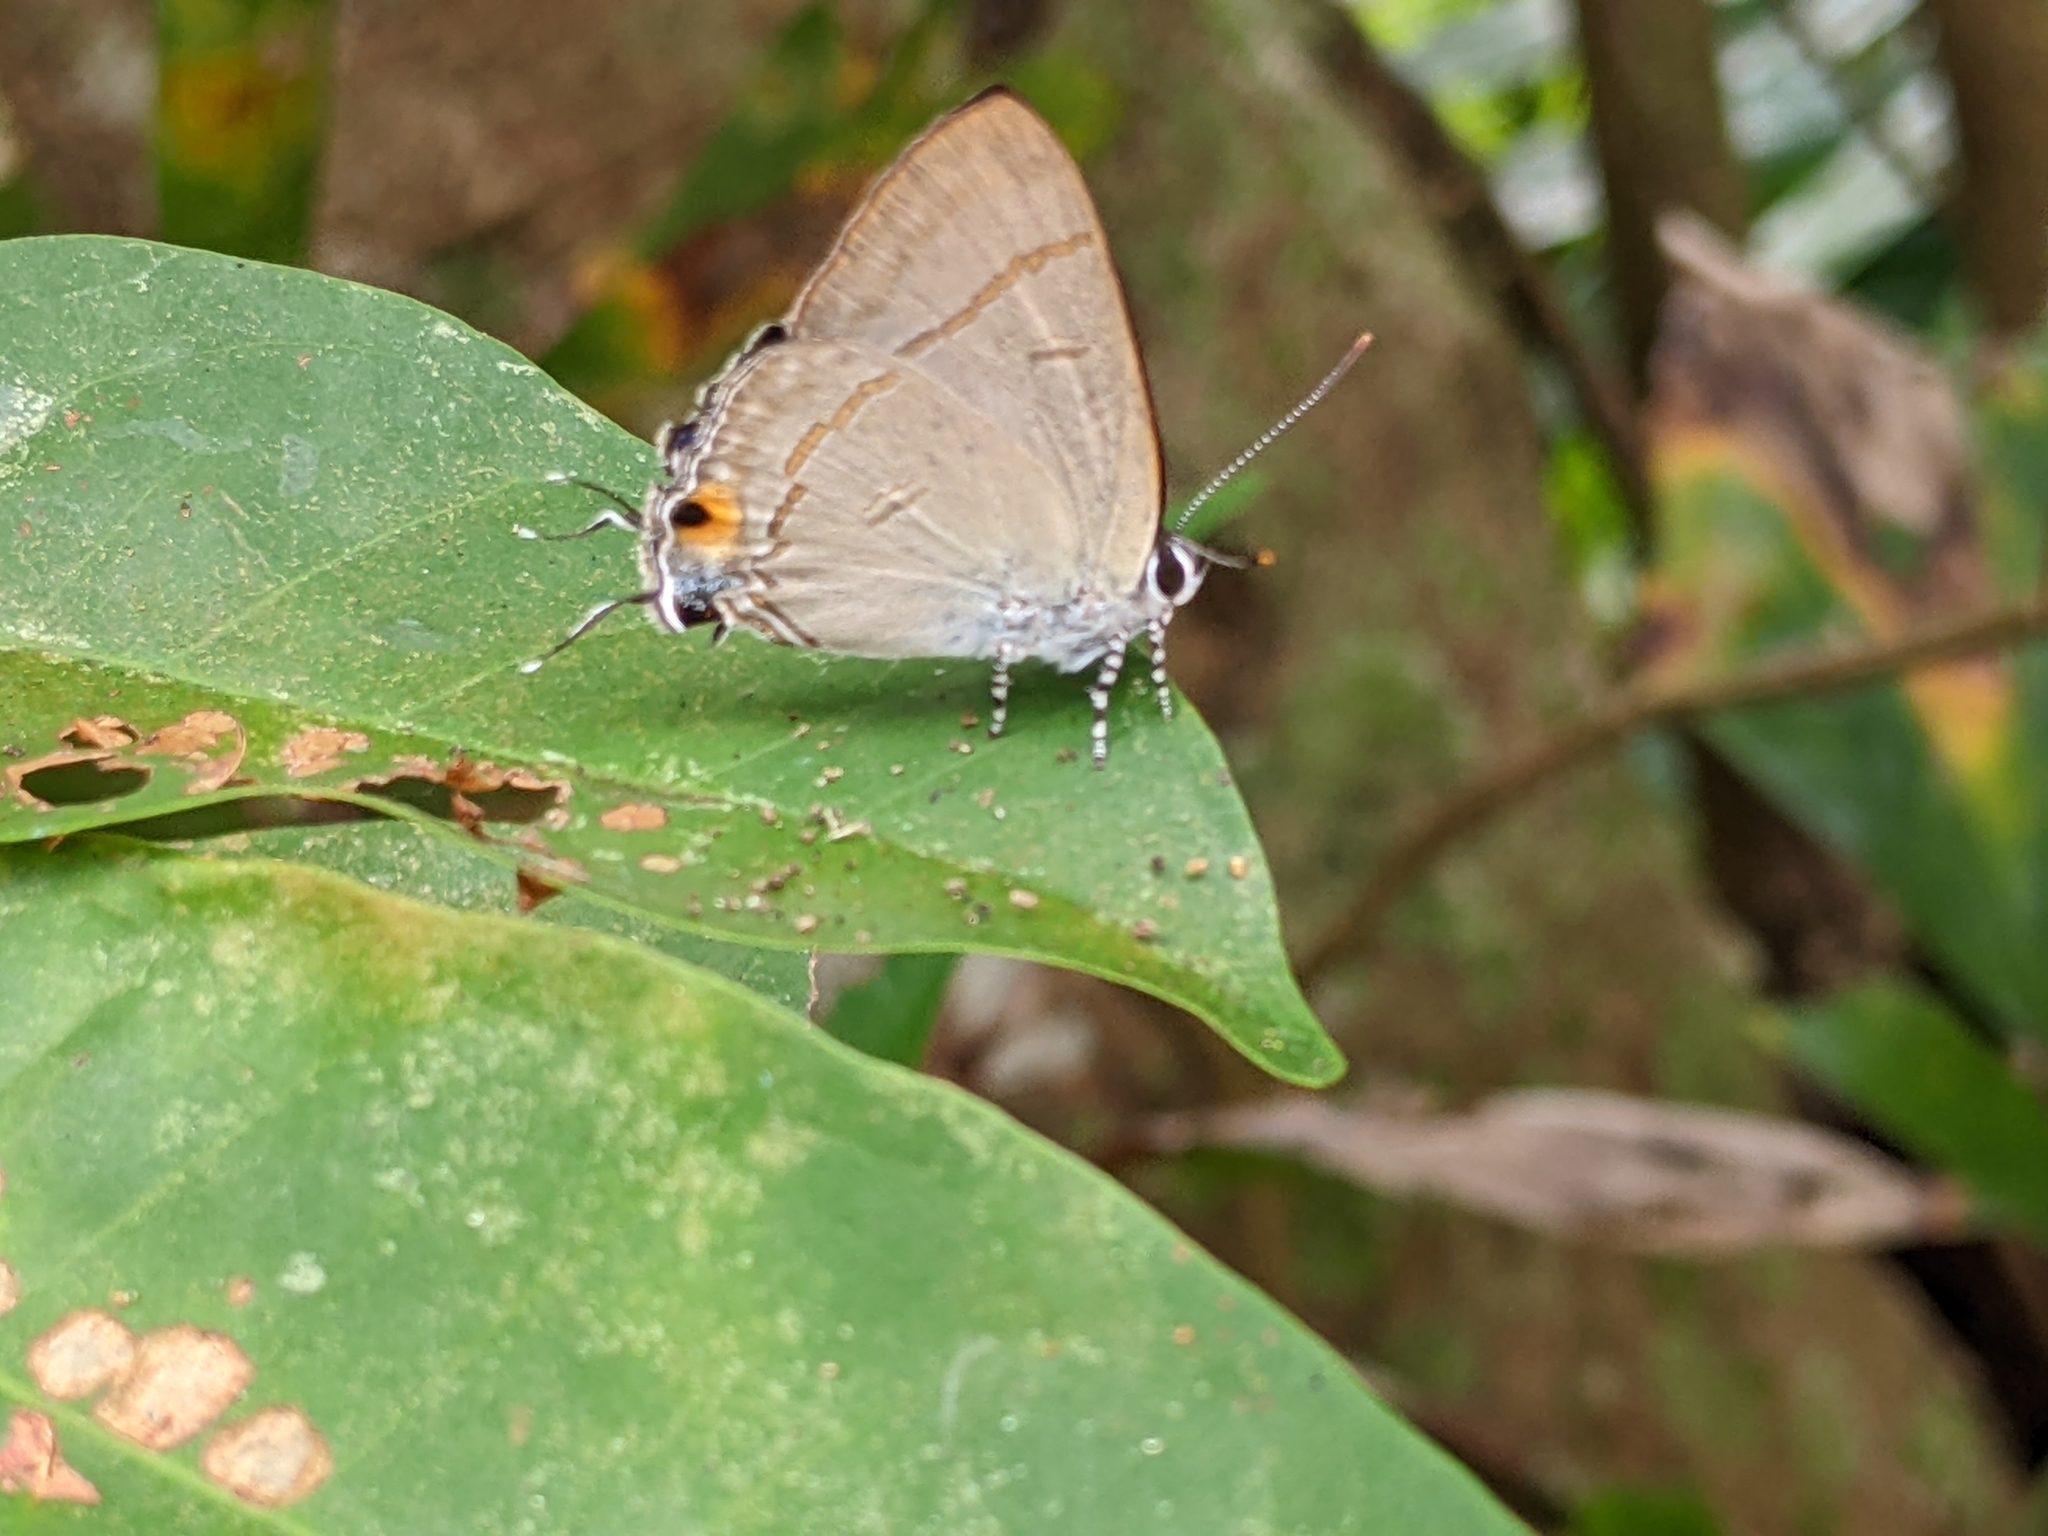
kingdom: Animalia
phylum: Arthropoda
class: Insecta
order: Lepidoptera
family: Lycaenidae
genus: Hypolycaena
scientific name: Hypolycaena erylus
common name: Common tit
